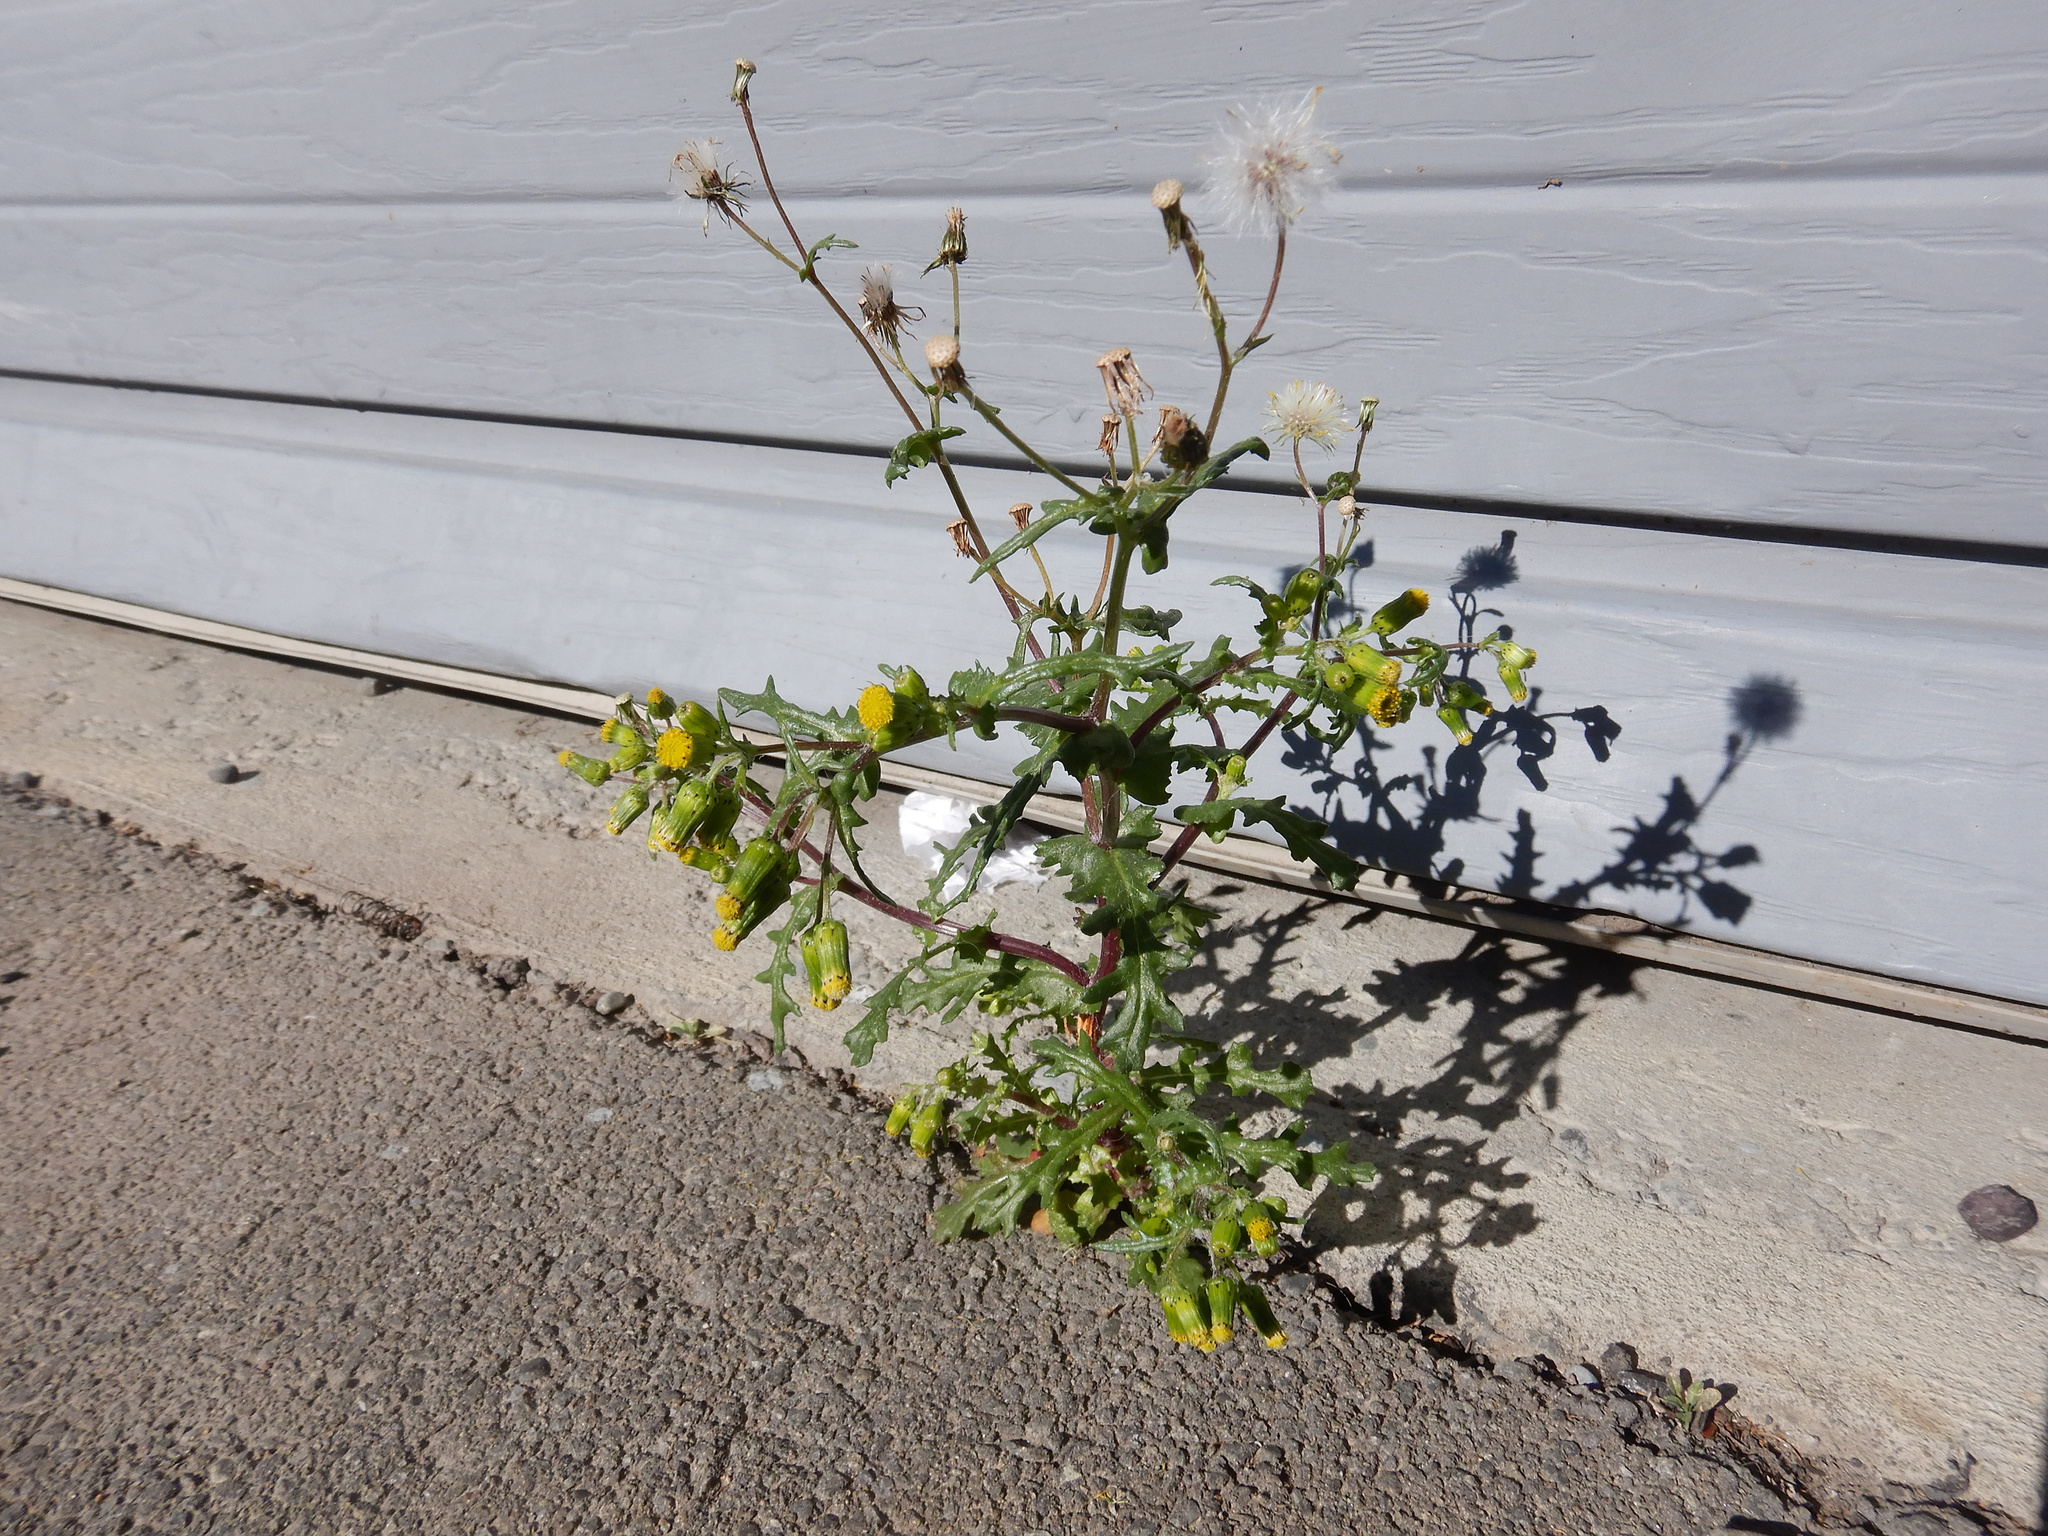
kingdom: Plantae
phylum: Tracheophyta
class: Magnoliopsida
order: Asterales
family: Asteraceae
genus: Senecio
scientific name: Senecio vulgaris
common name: Old-man-in-the-spring
